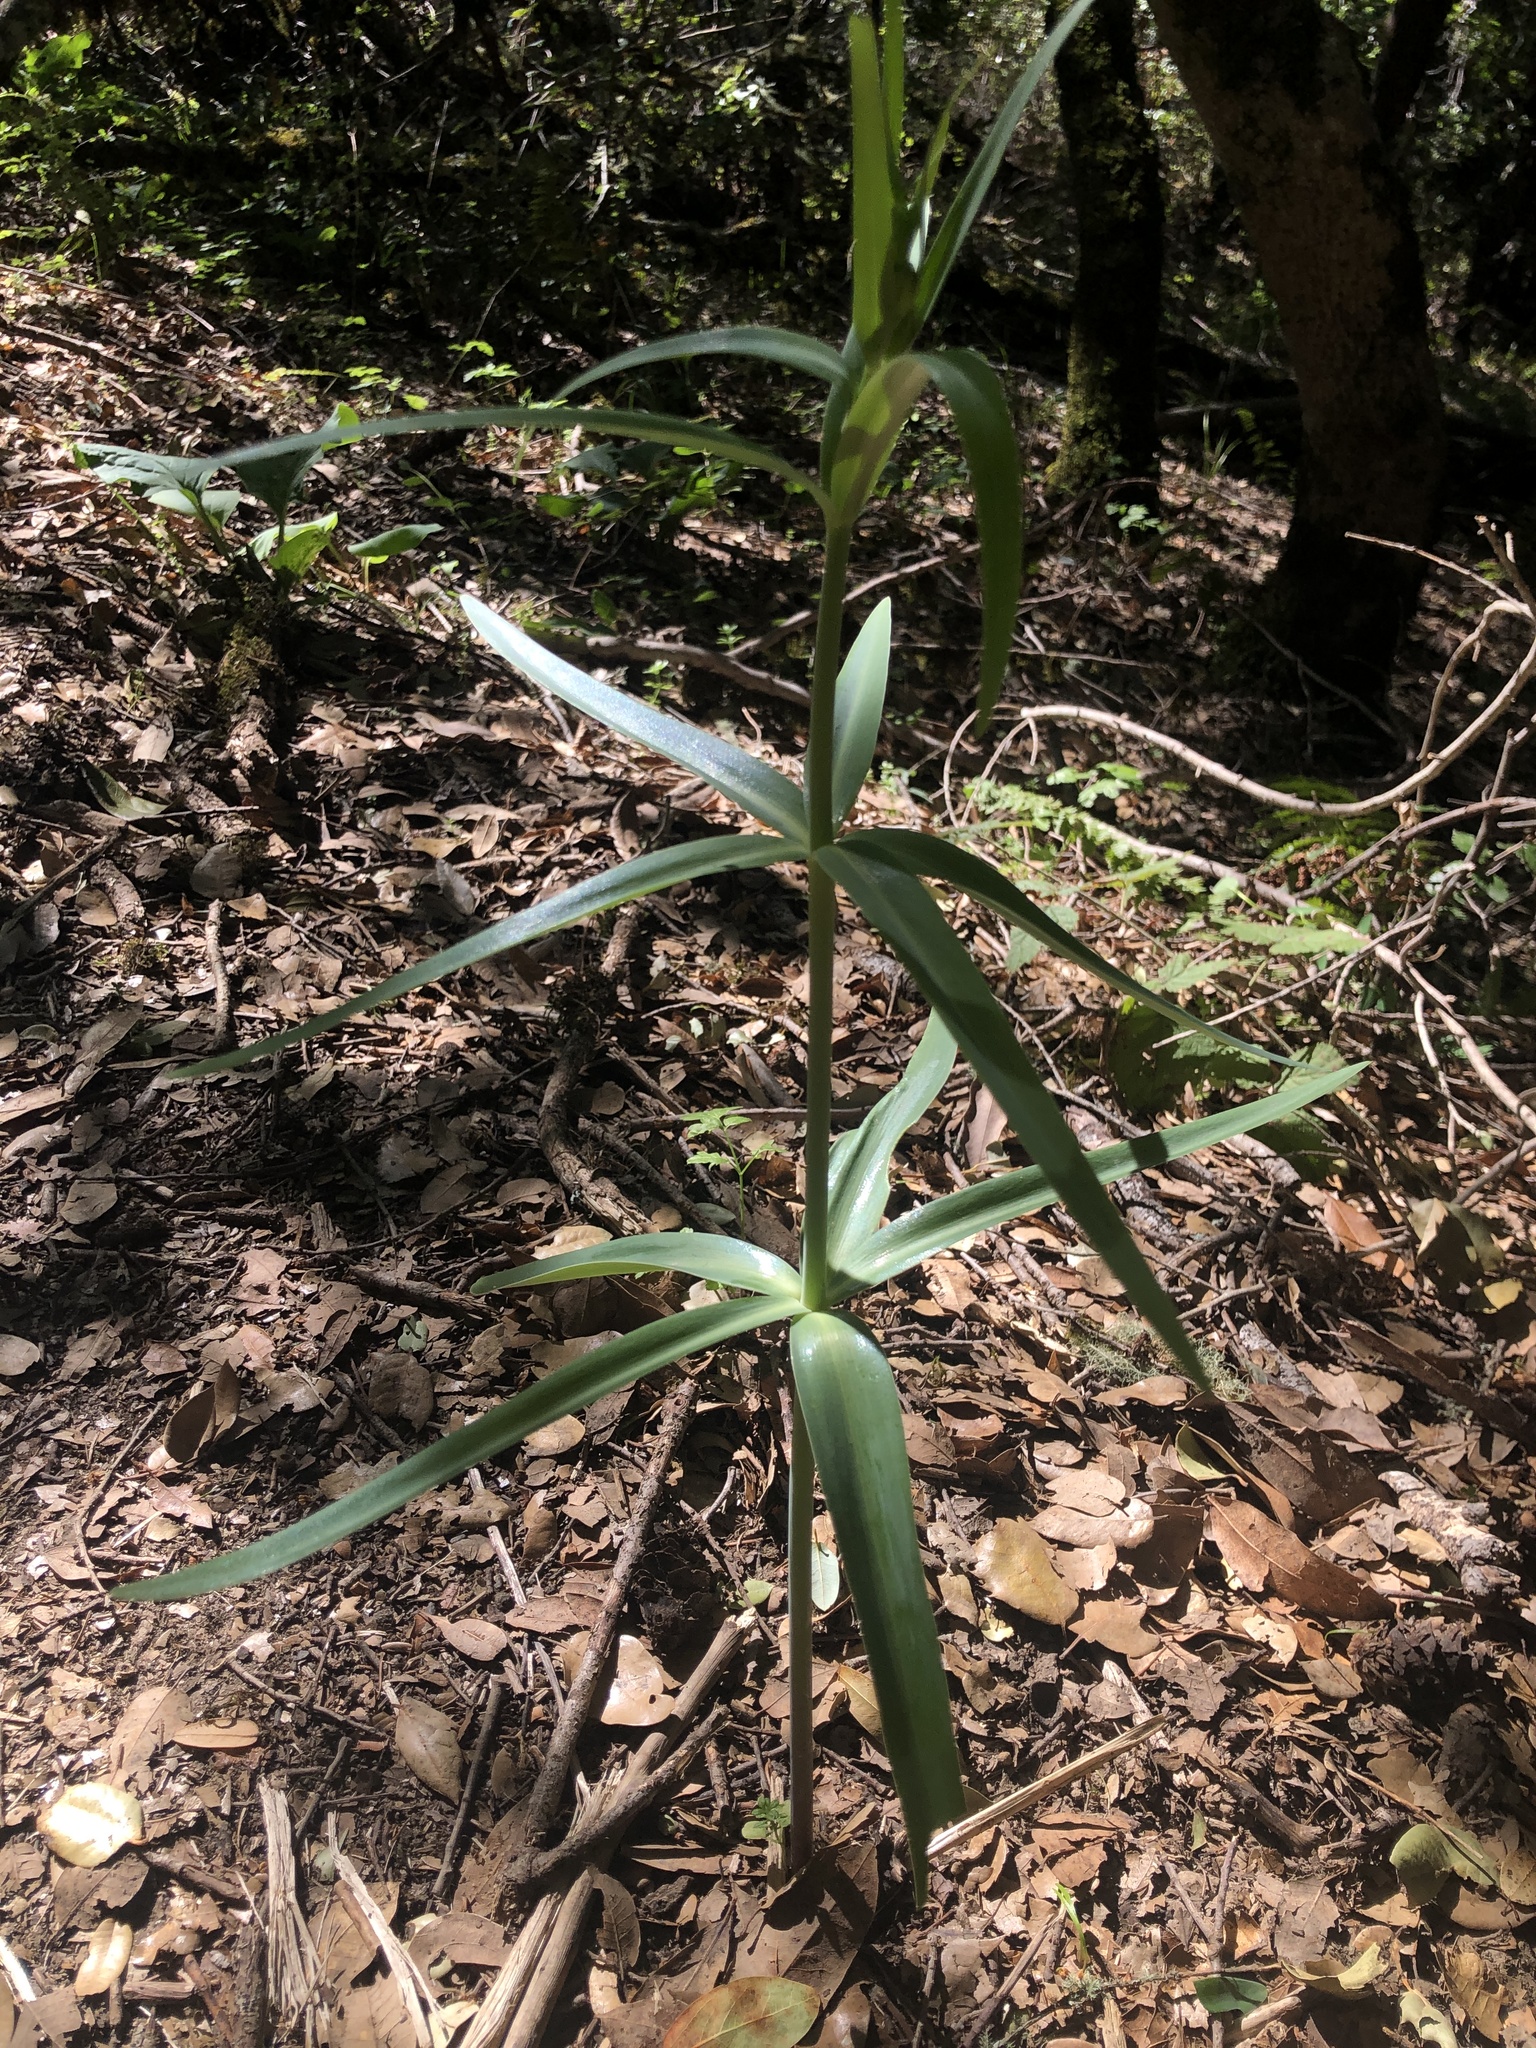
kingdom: Plantae
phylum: Tracheophyta
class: Liliopsida
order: Liliales
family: Liliaceae
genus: Fritillaria
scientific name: Fritillaria affinis
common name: Ojai fritillary
